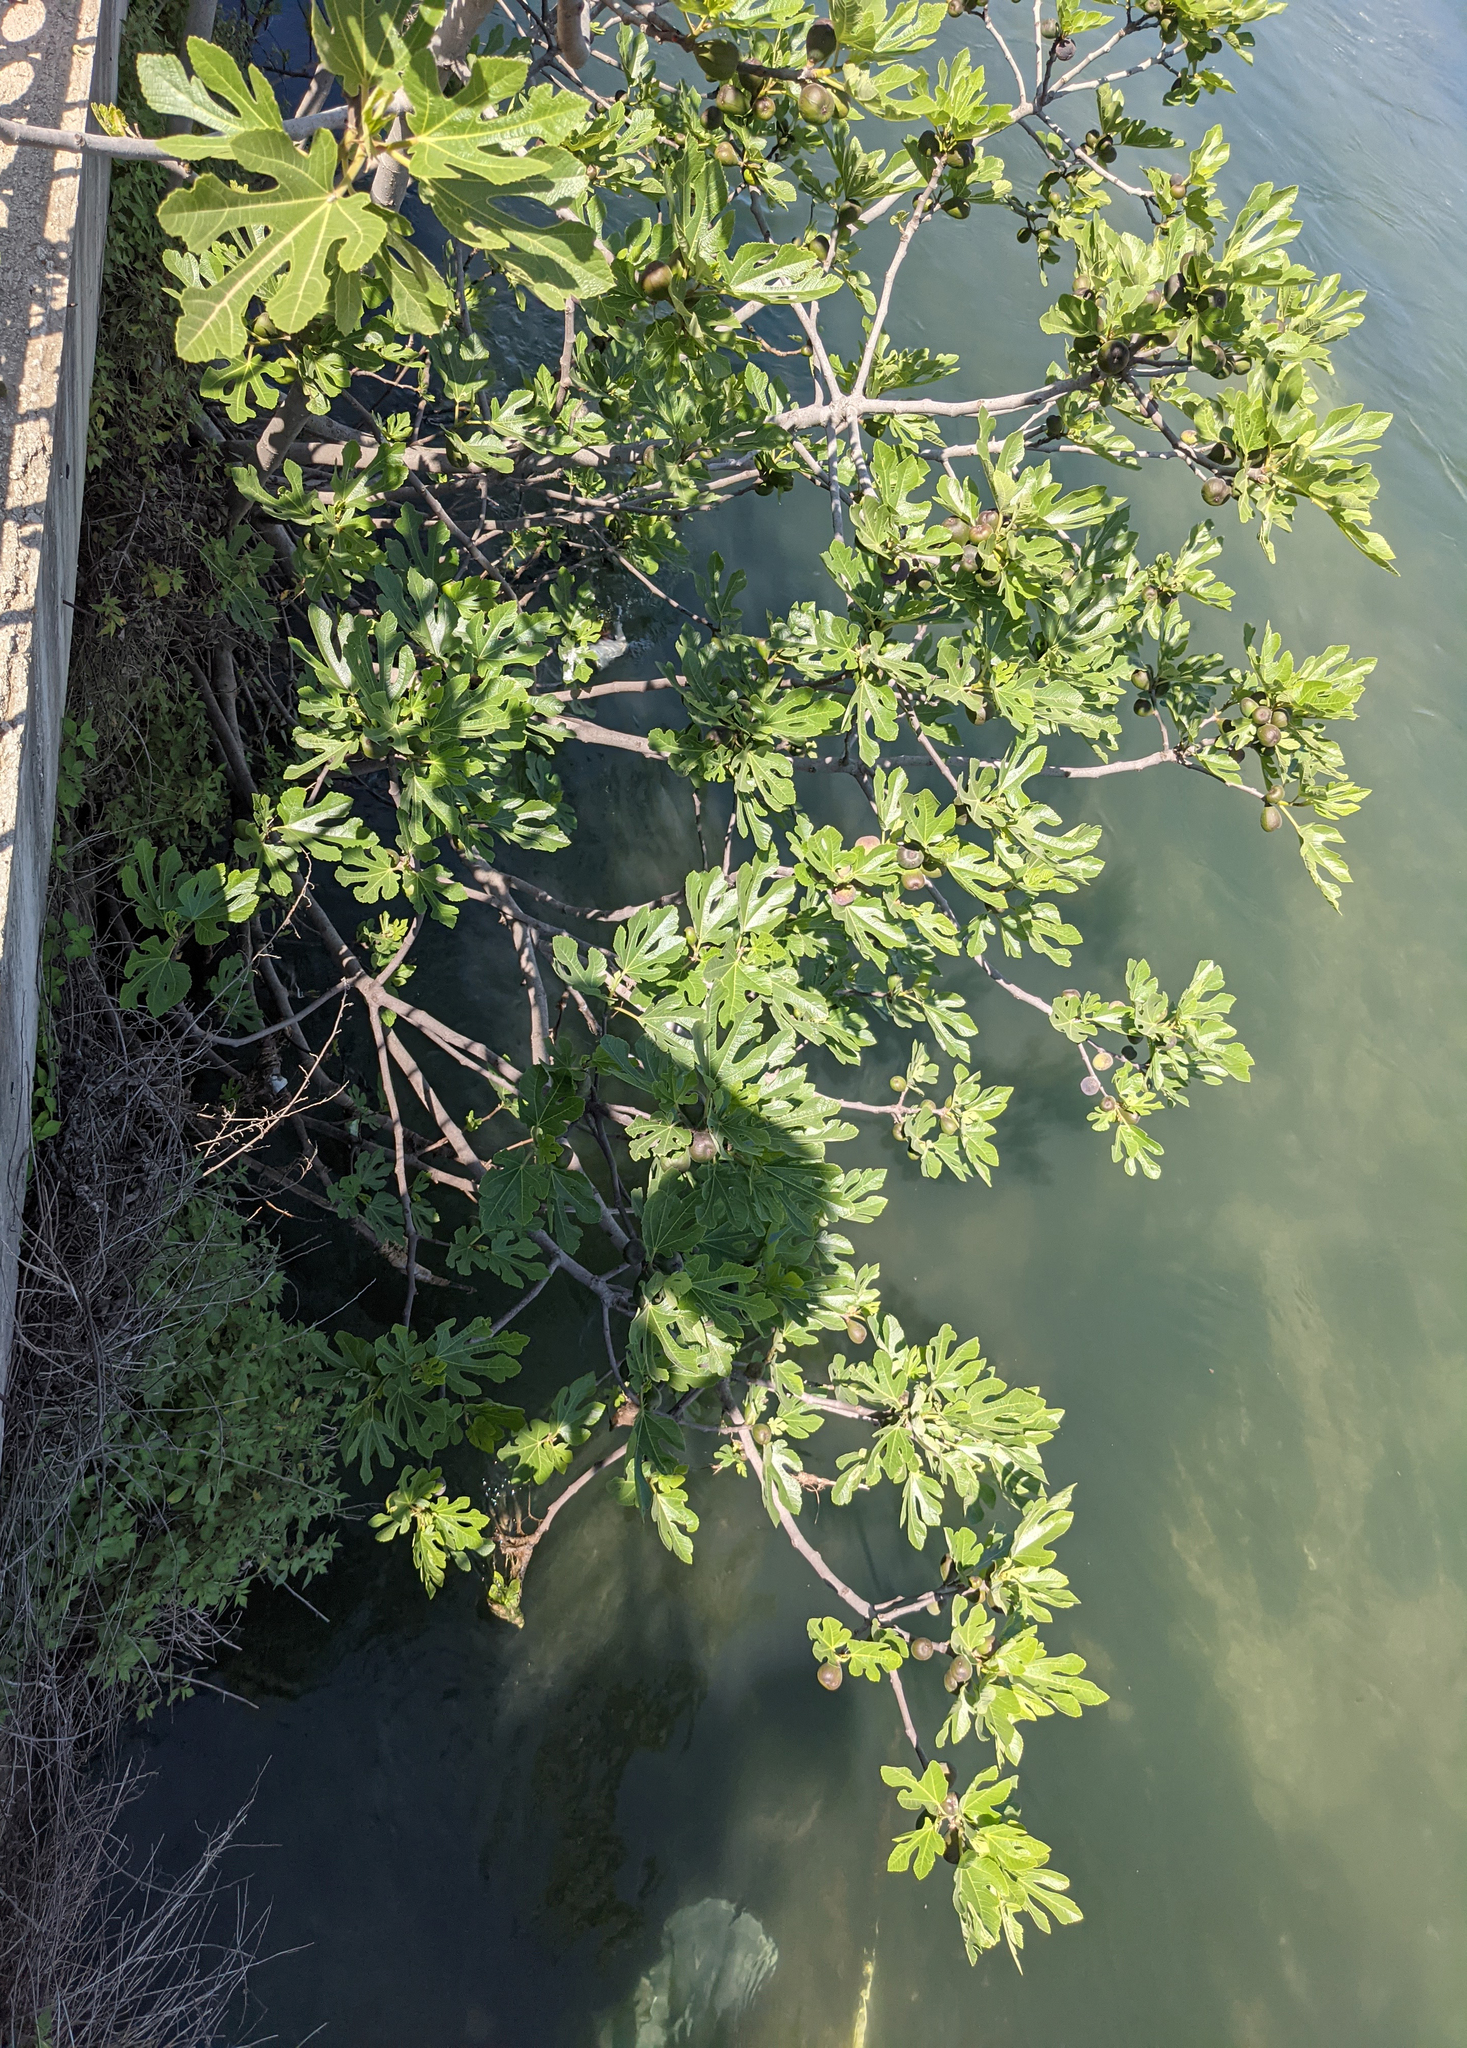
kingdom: Plantae
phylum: Tracheophyta
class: Magnoliopsida
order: Rosales
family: Moraceae
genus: Ficus
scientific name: Ficus carica
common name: Fig
